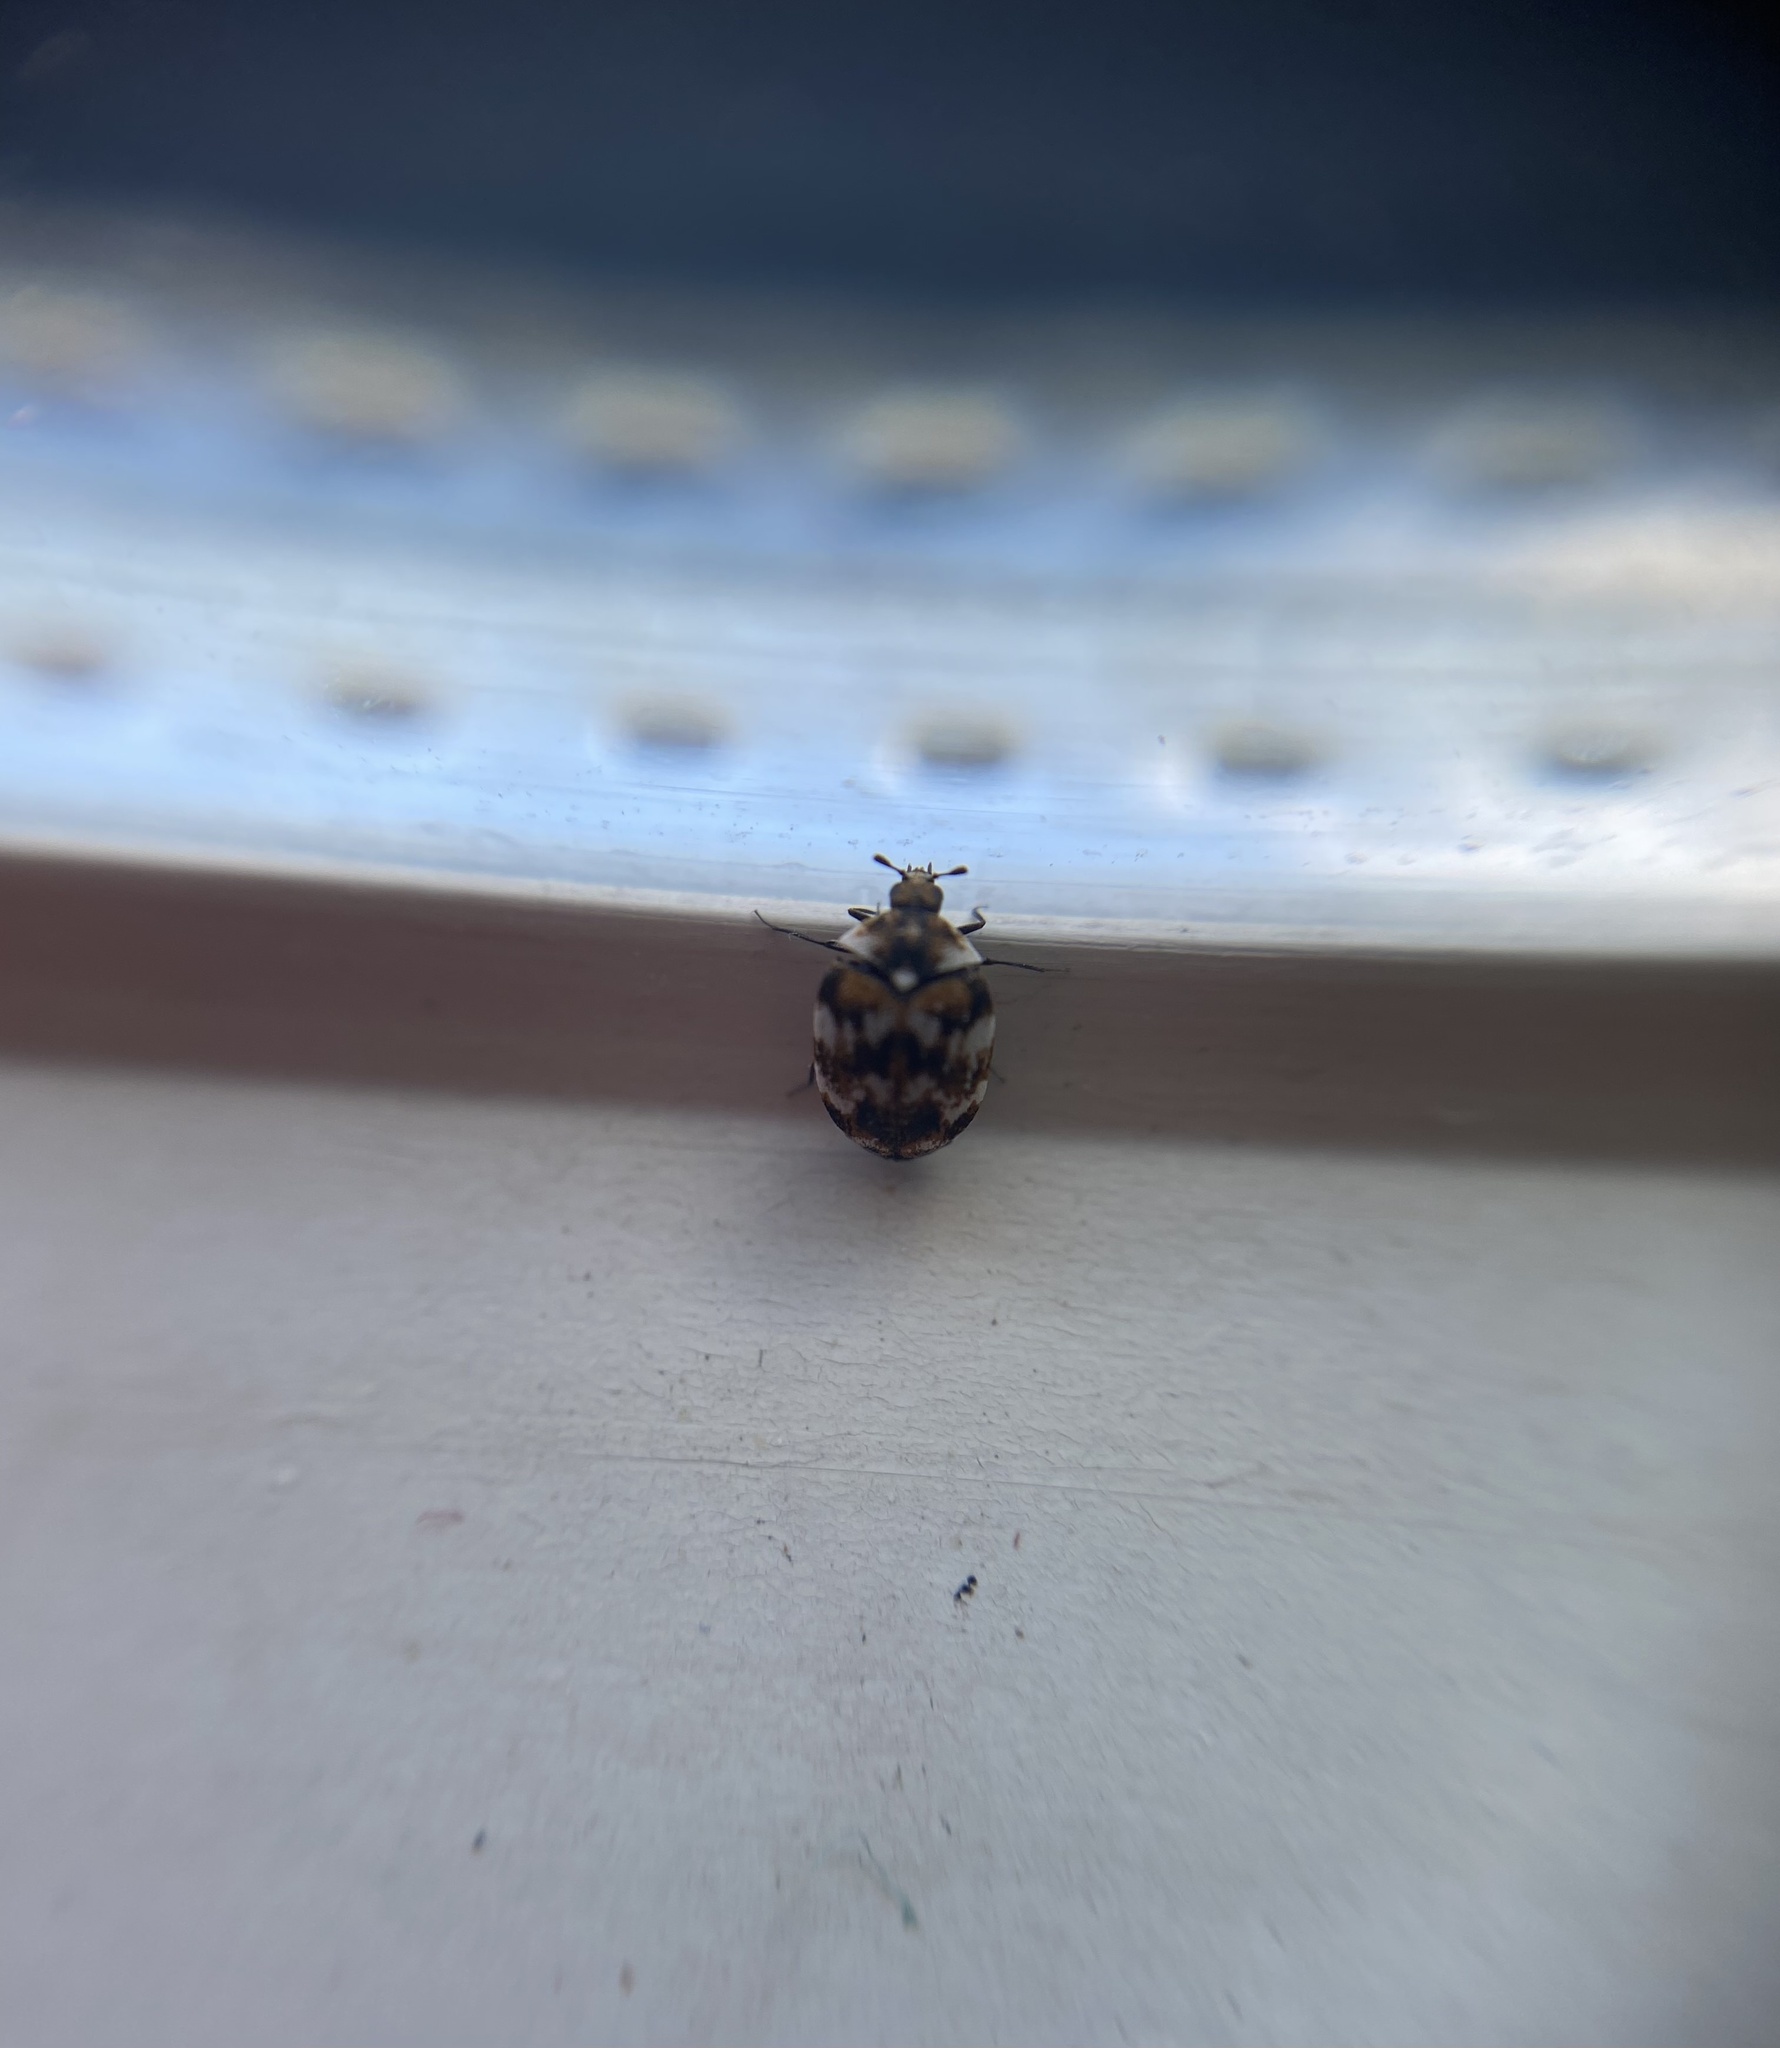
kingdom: Animalia
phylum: Arthropoda
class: Insecta
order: Coleoptera
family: Dermestidae
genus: Anthrenus
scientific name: Anthrenus verbasci
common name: Varied carpet beetle
